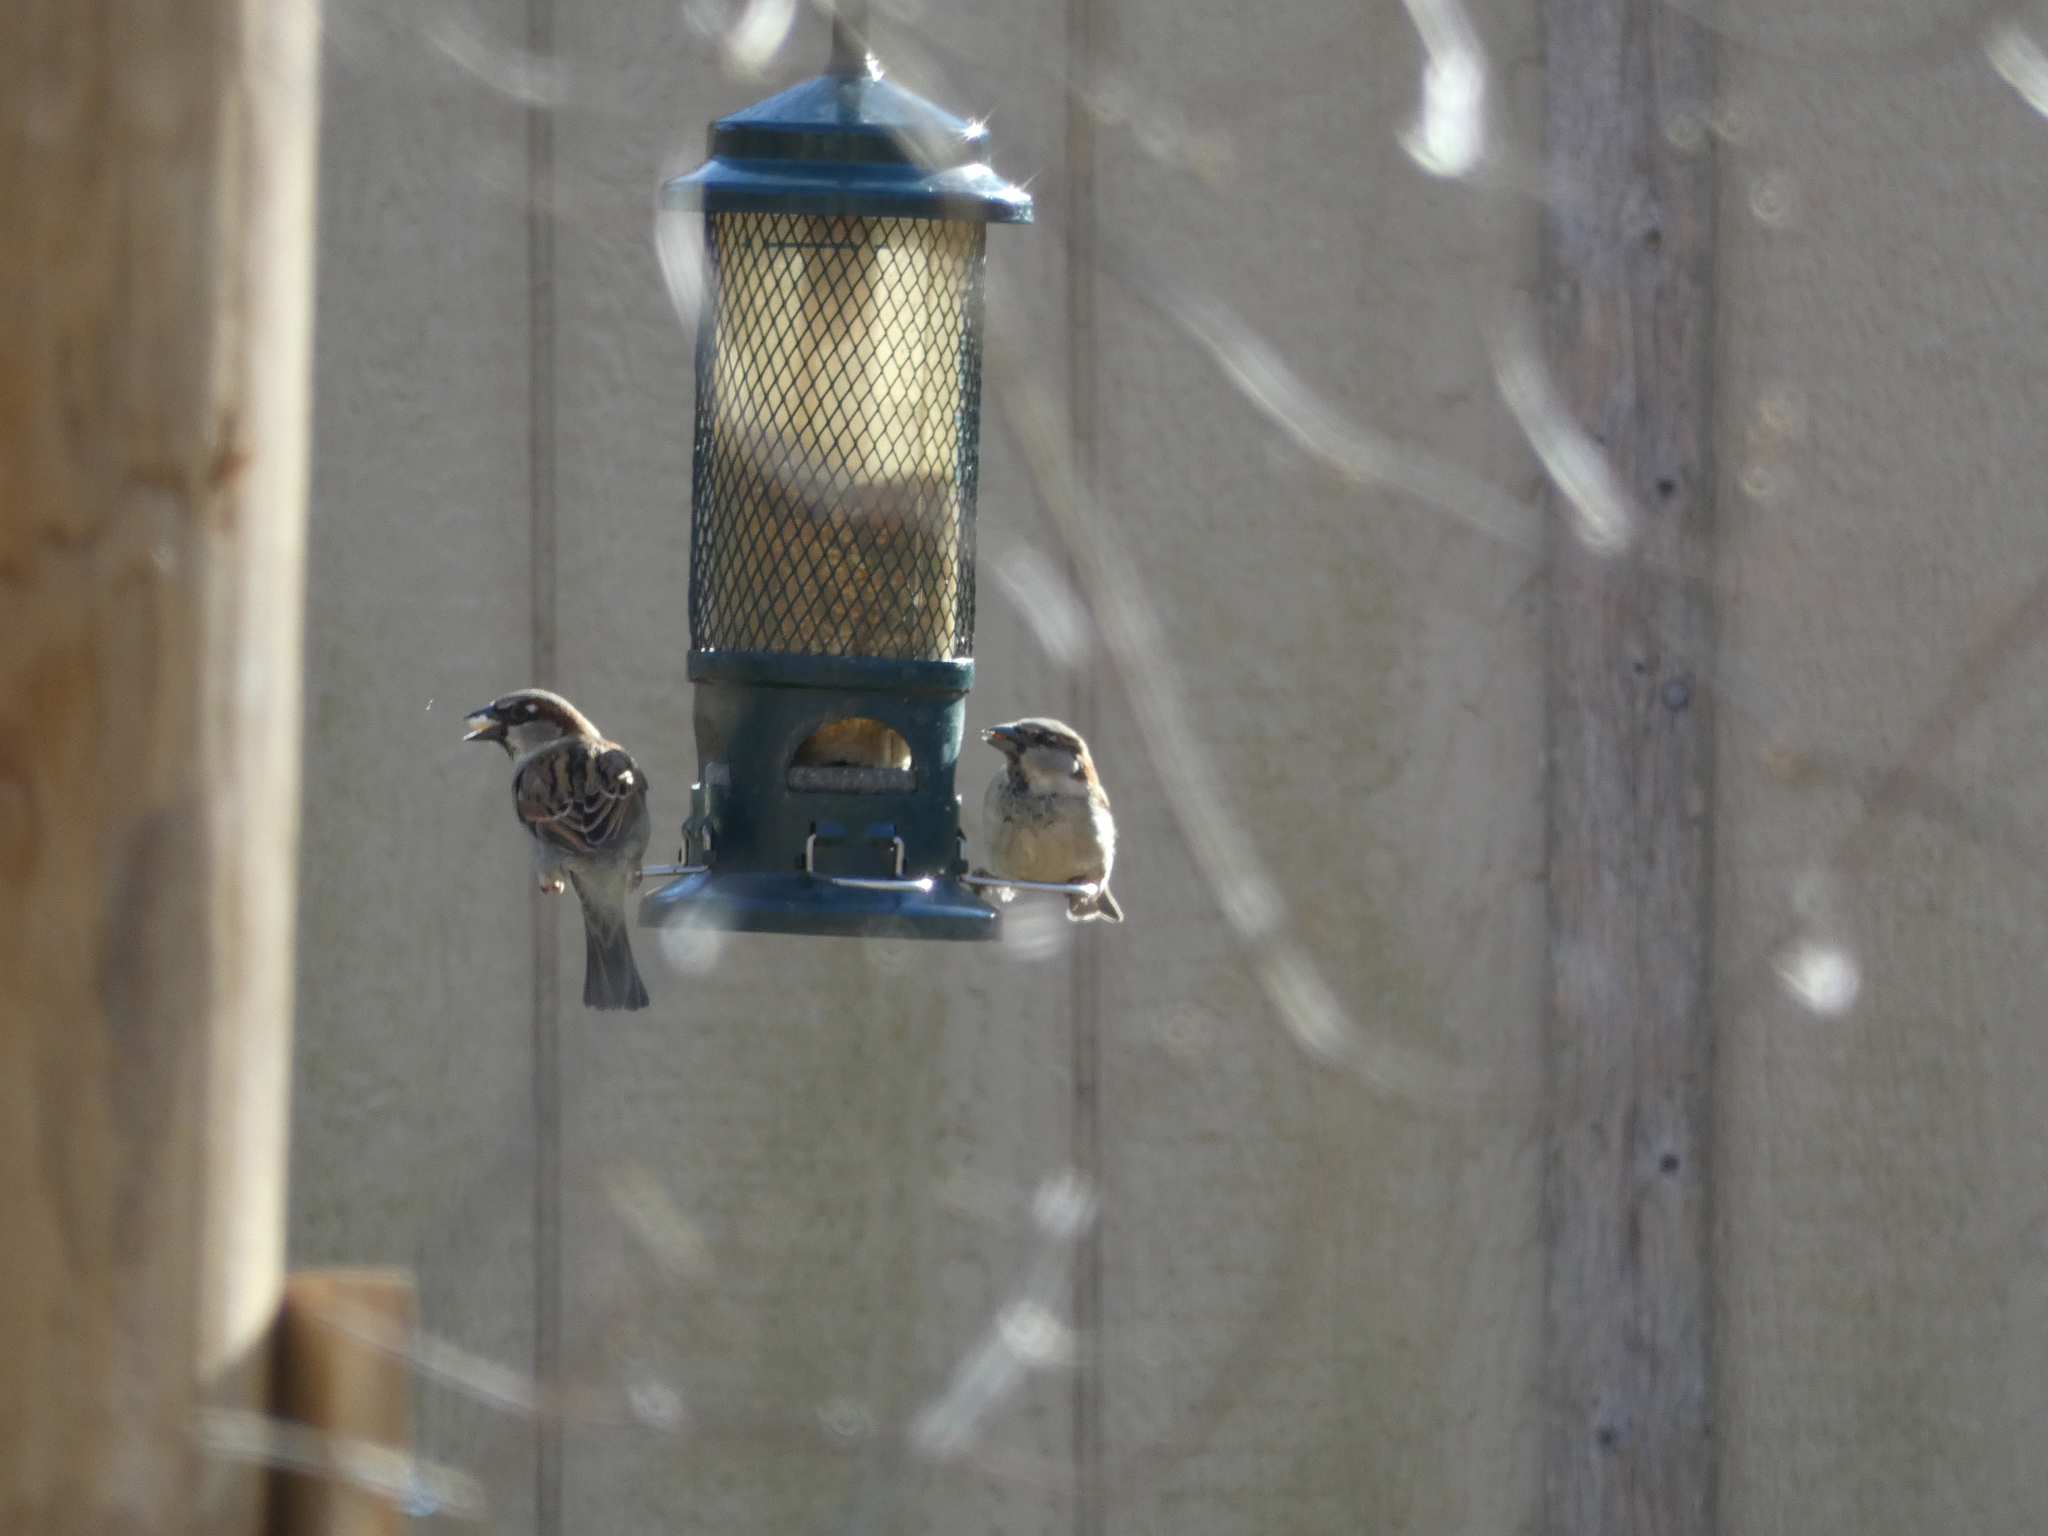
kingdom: Animalia
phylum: Chordata
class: Aves
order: Passeriformes
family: Passeridae
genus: Passer
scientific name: Passer domesticus
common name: House sparrow
